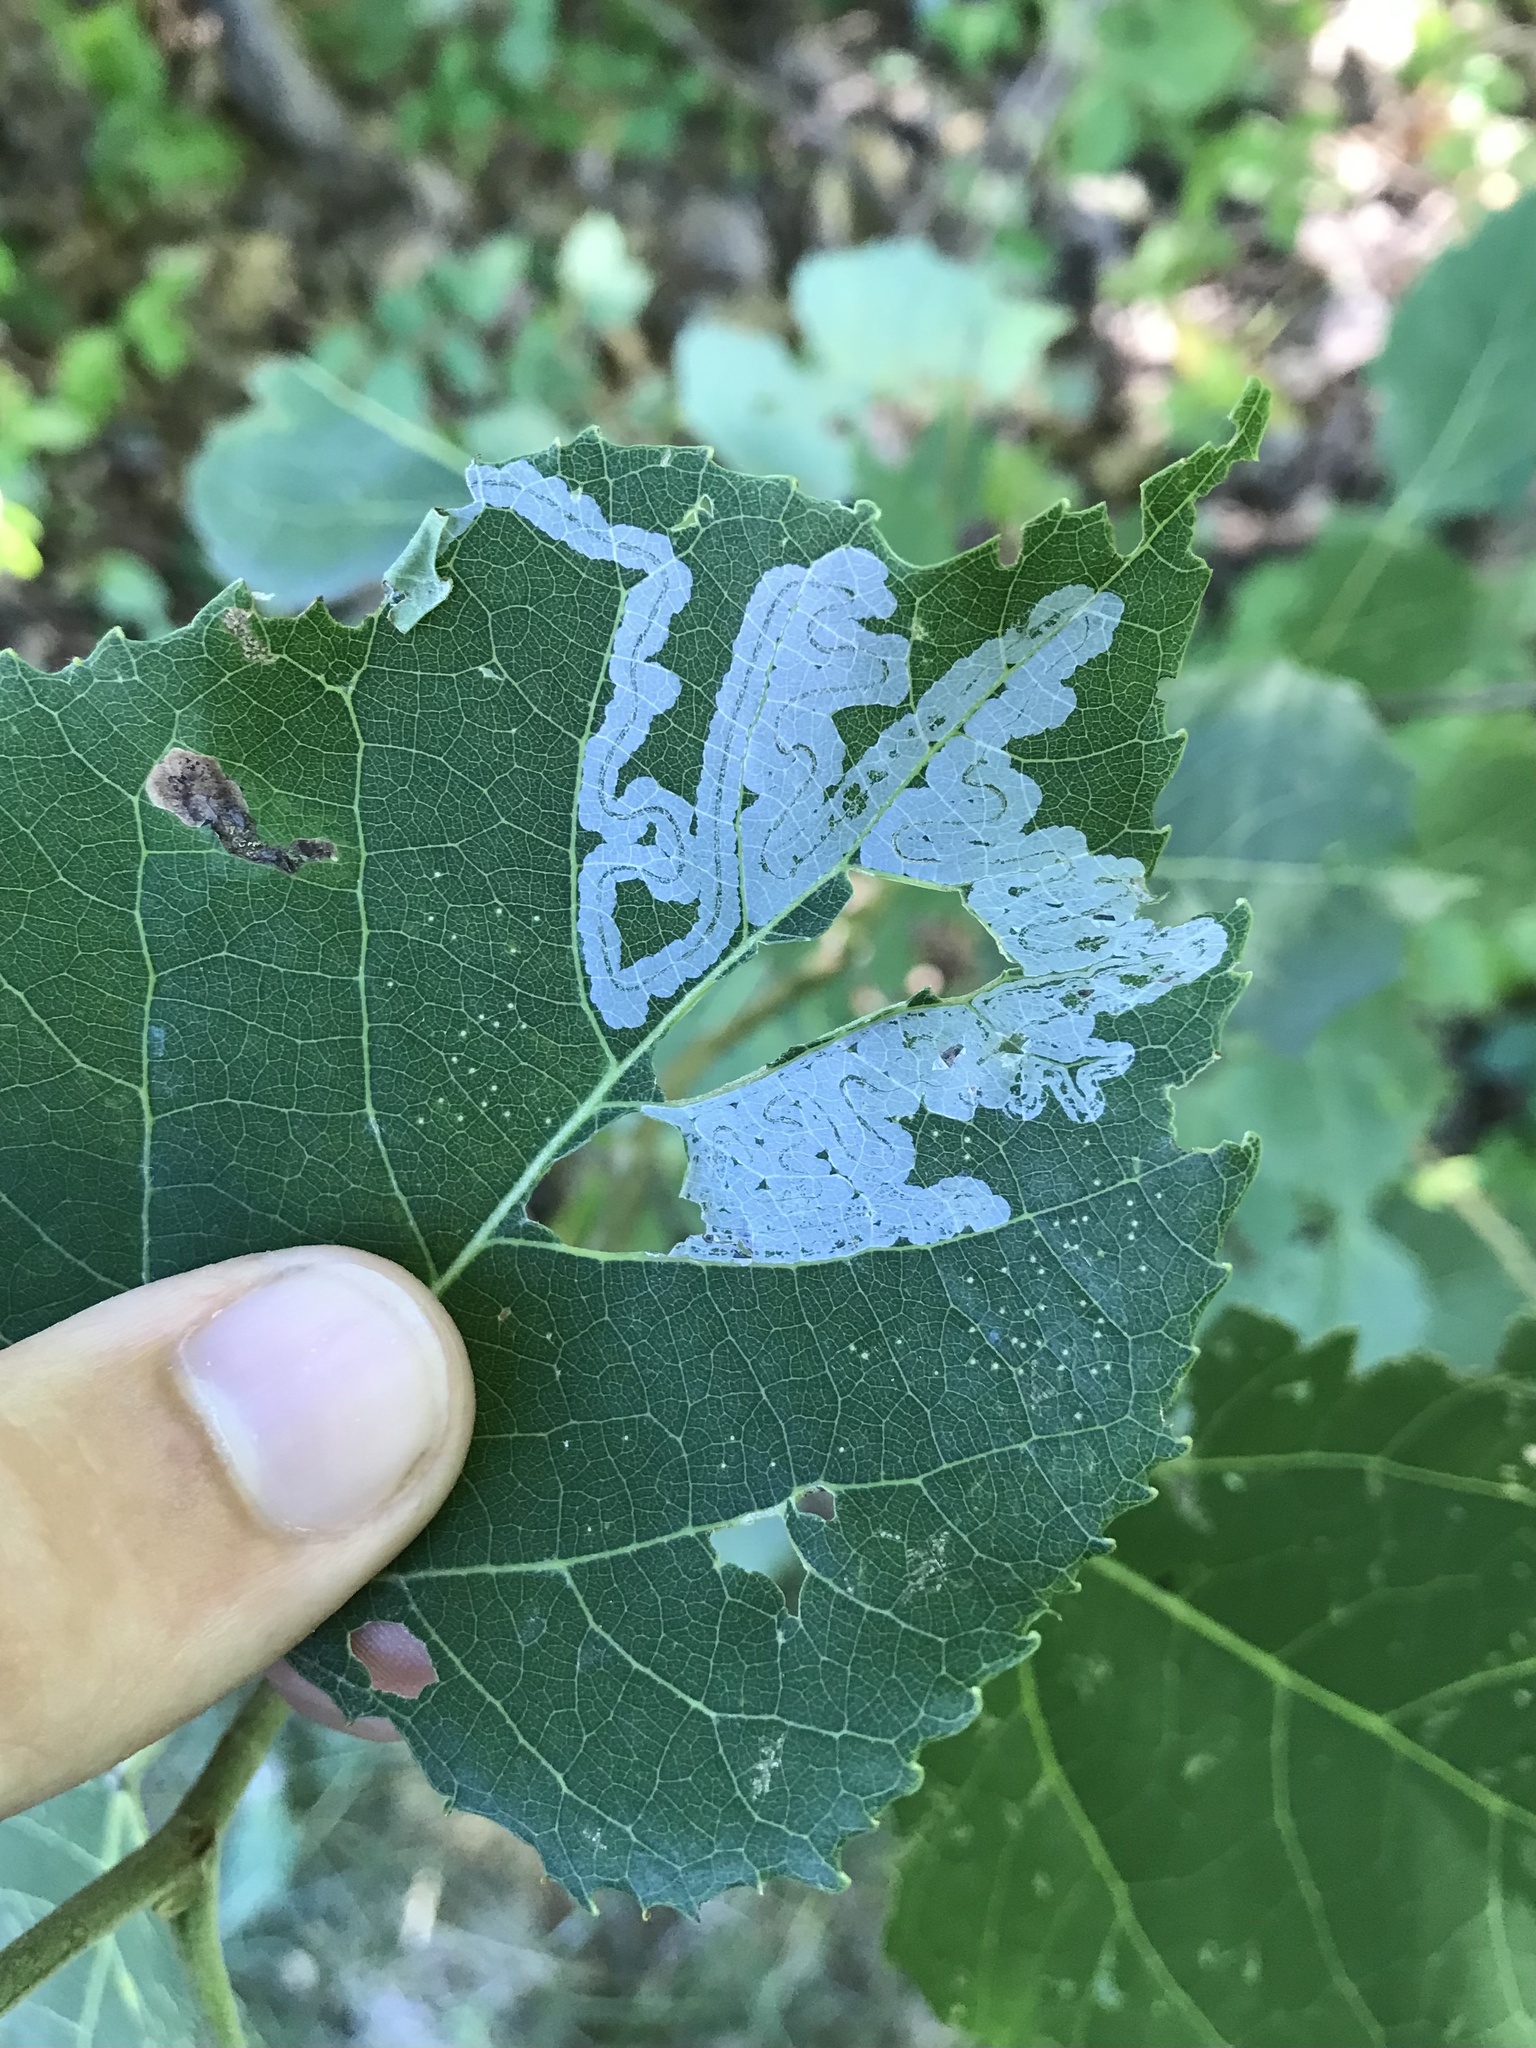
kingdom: Animalia
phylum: Arthropoda
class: Insecta
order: Lepidoptera
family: Gracillariidae
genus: Phyllocnistis
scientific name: Phyllocnistis populiella
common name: Aspen serpentine leafminer moth
